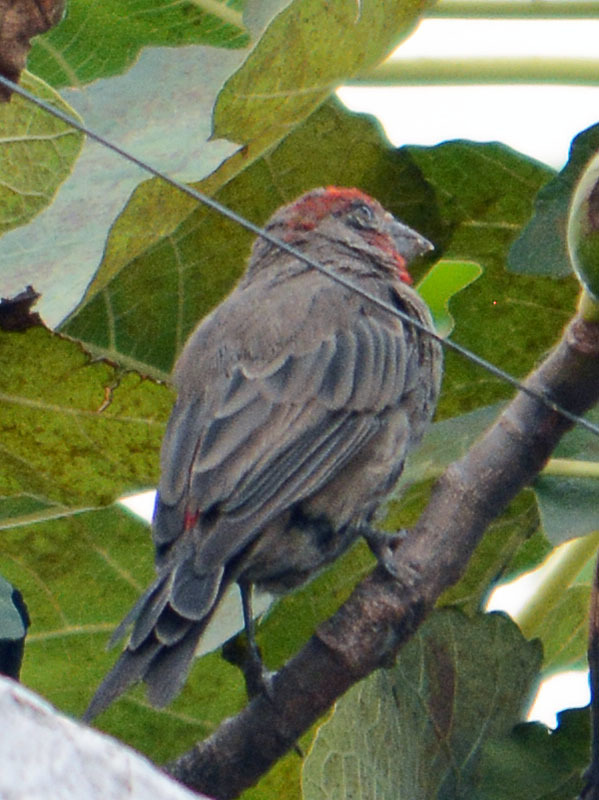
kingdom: Animalia
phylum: Chordata
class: Aves
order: Passeriformes
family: Fringillidae
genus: Haemorhous
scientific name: Haemorhous mexicanus
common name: House finch
